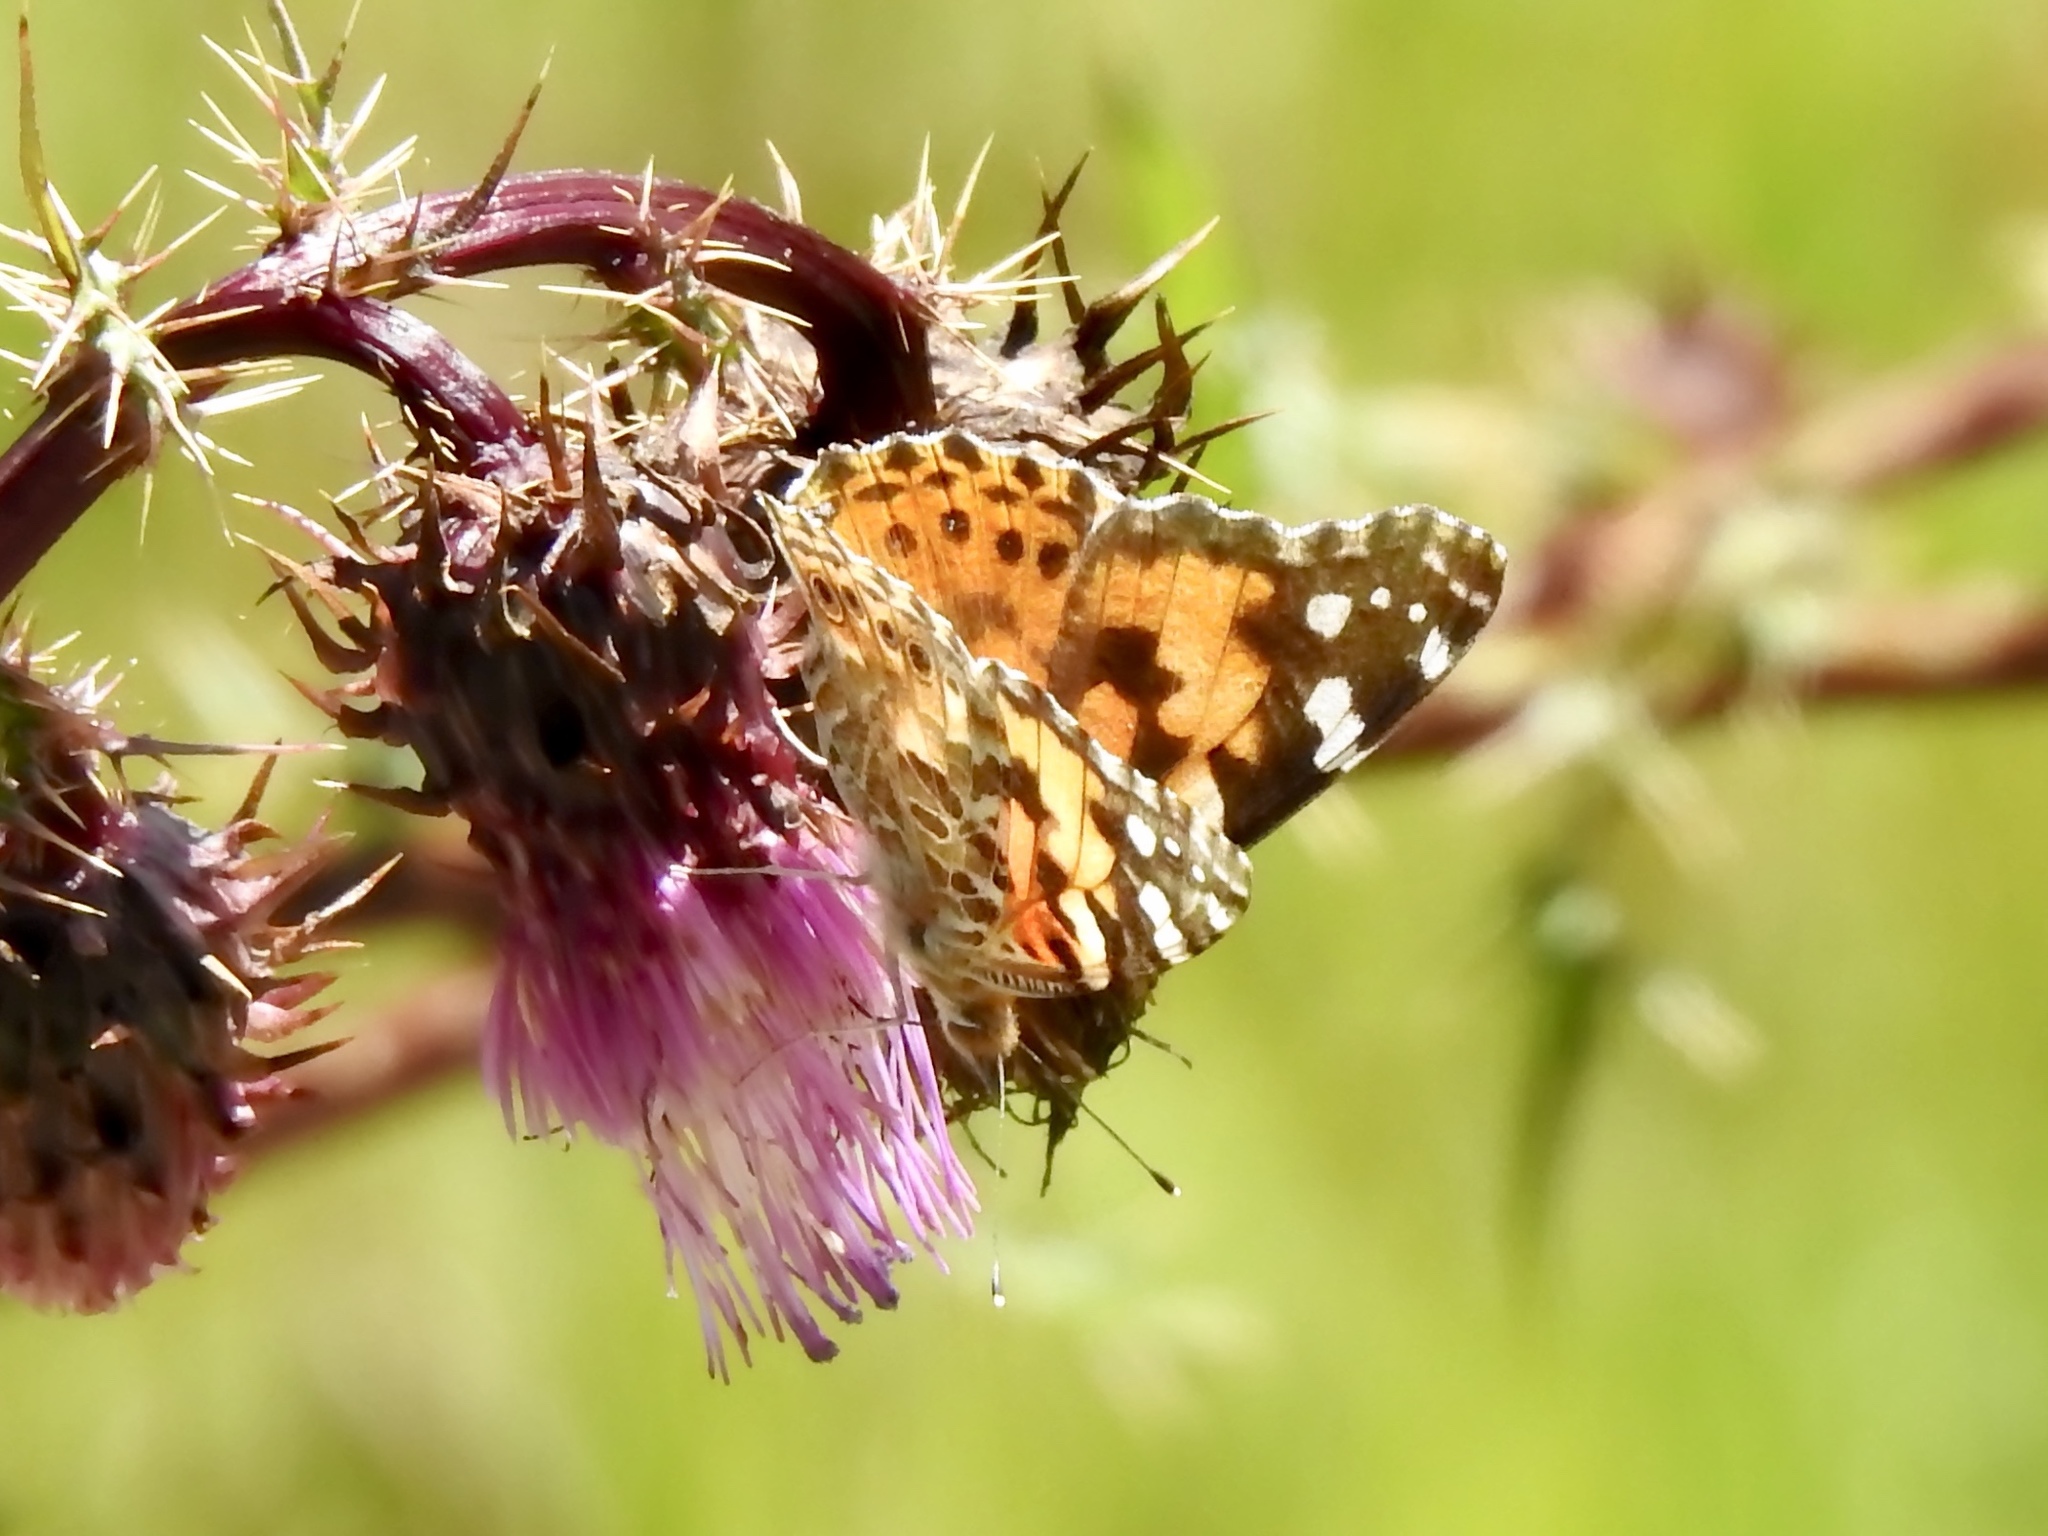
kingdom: Animalia
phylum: Arthropoda
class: Insecta
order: Lepidoptera
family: Nymphalidae
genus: Vanessa
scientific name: Vanessa cardui
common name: Painted lady
